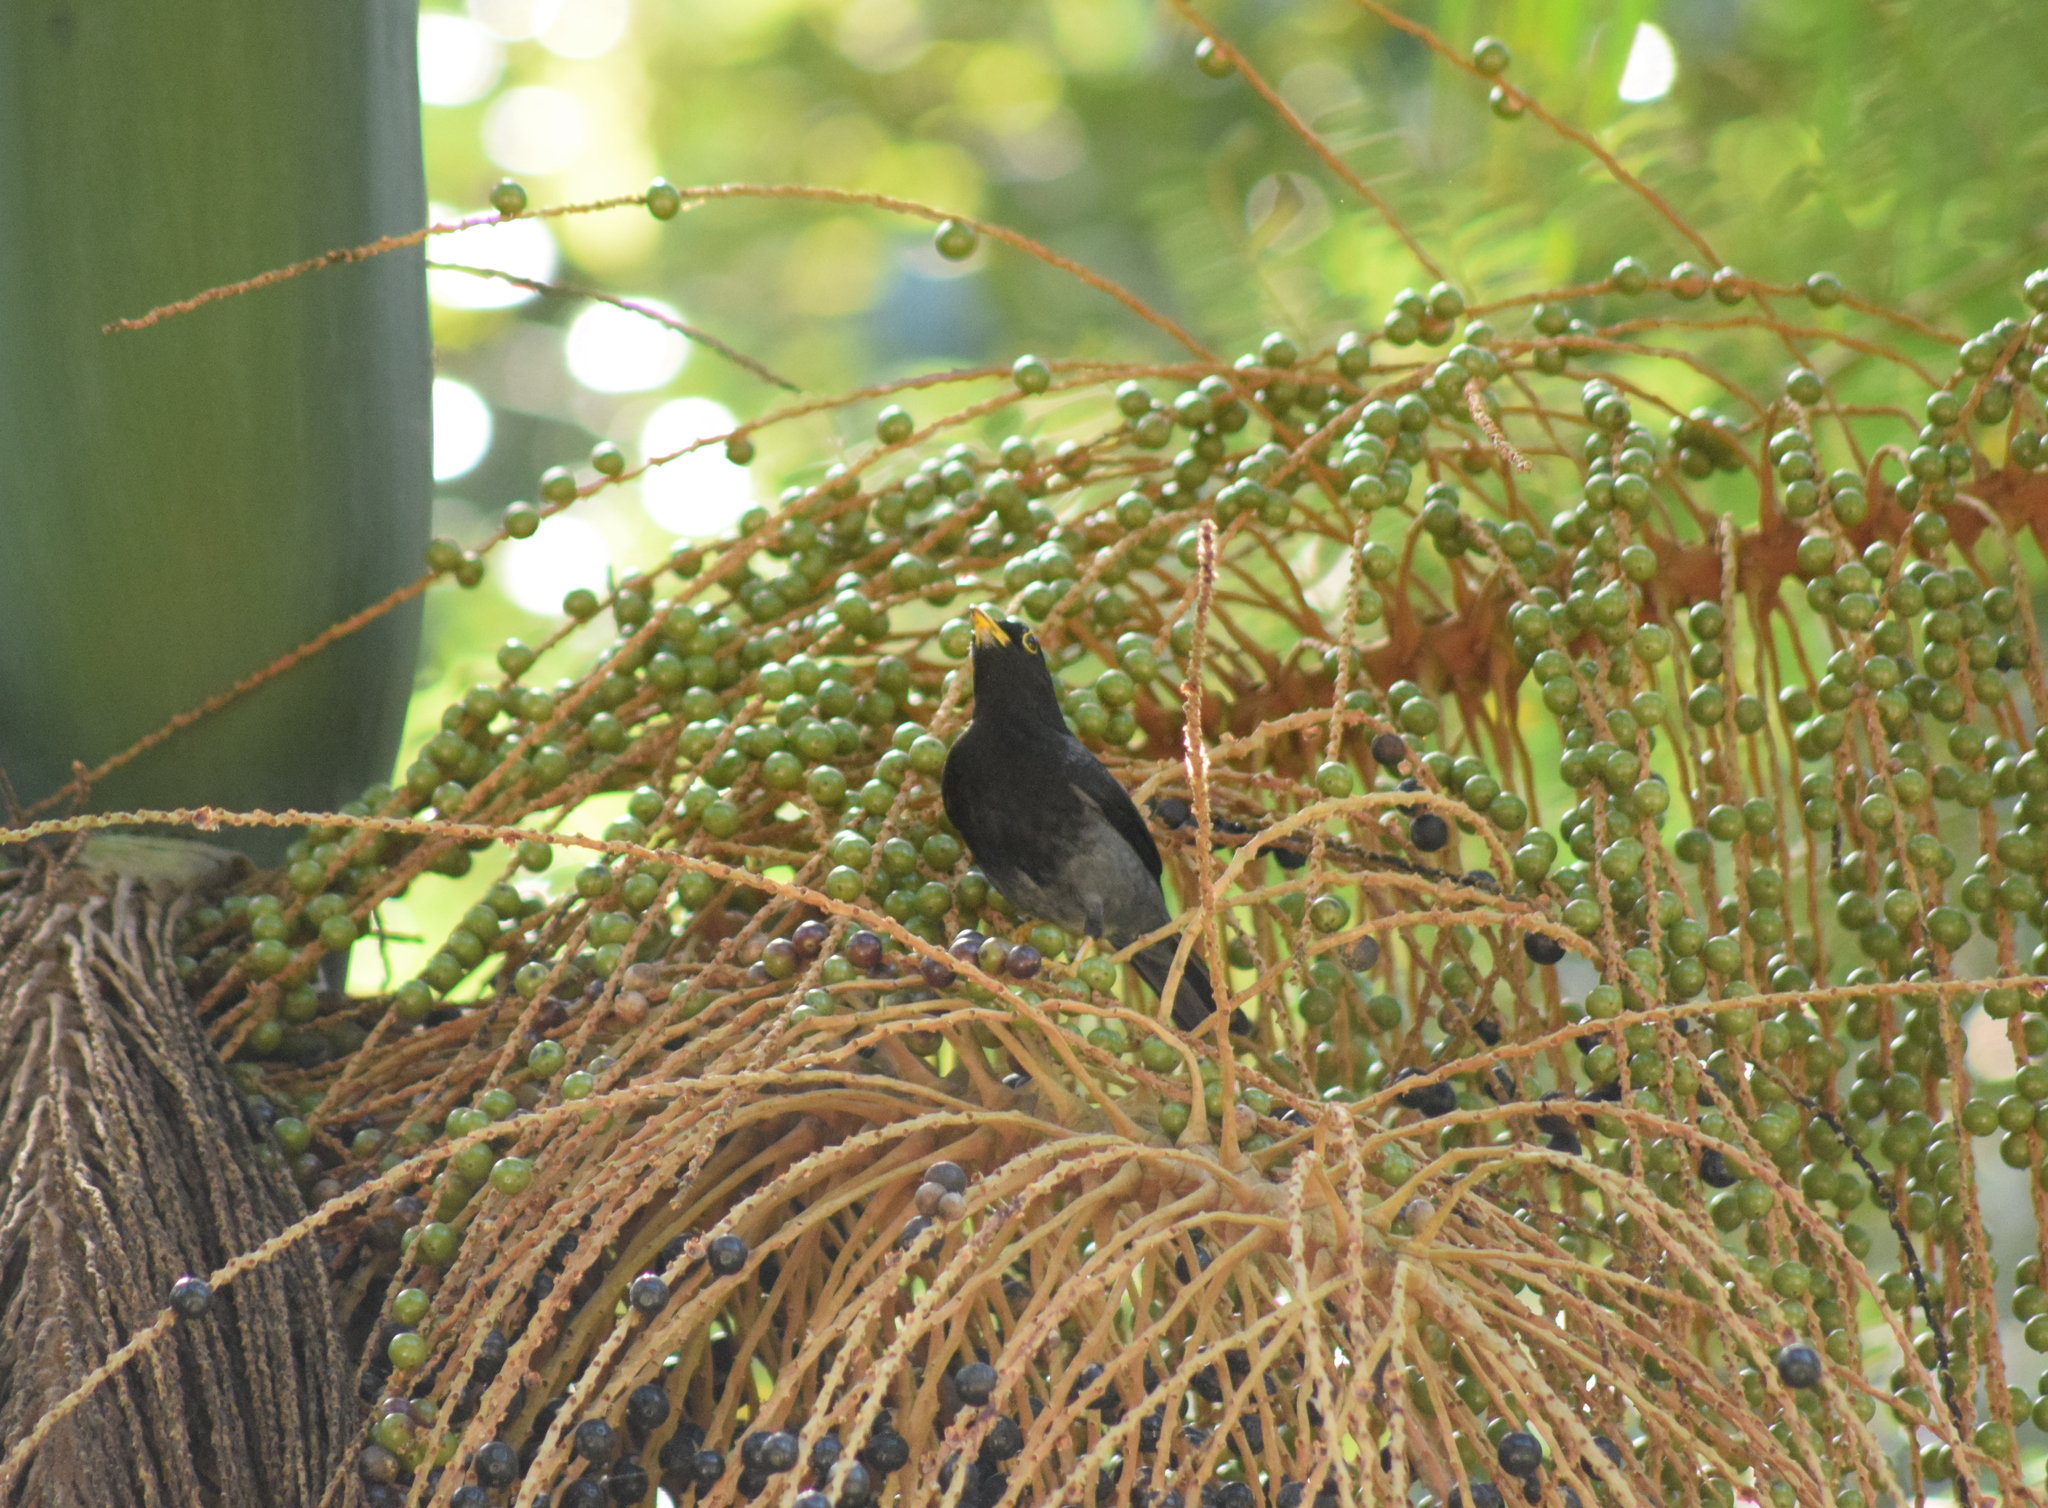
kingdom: Animalia
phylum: Chordata
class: Aves
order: Passeriformes
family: Turdidae
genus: Turdus
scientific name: Turdus flavipes
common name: Yellow-legged thrush
